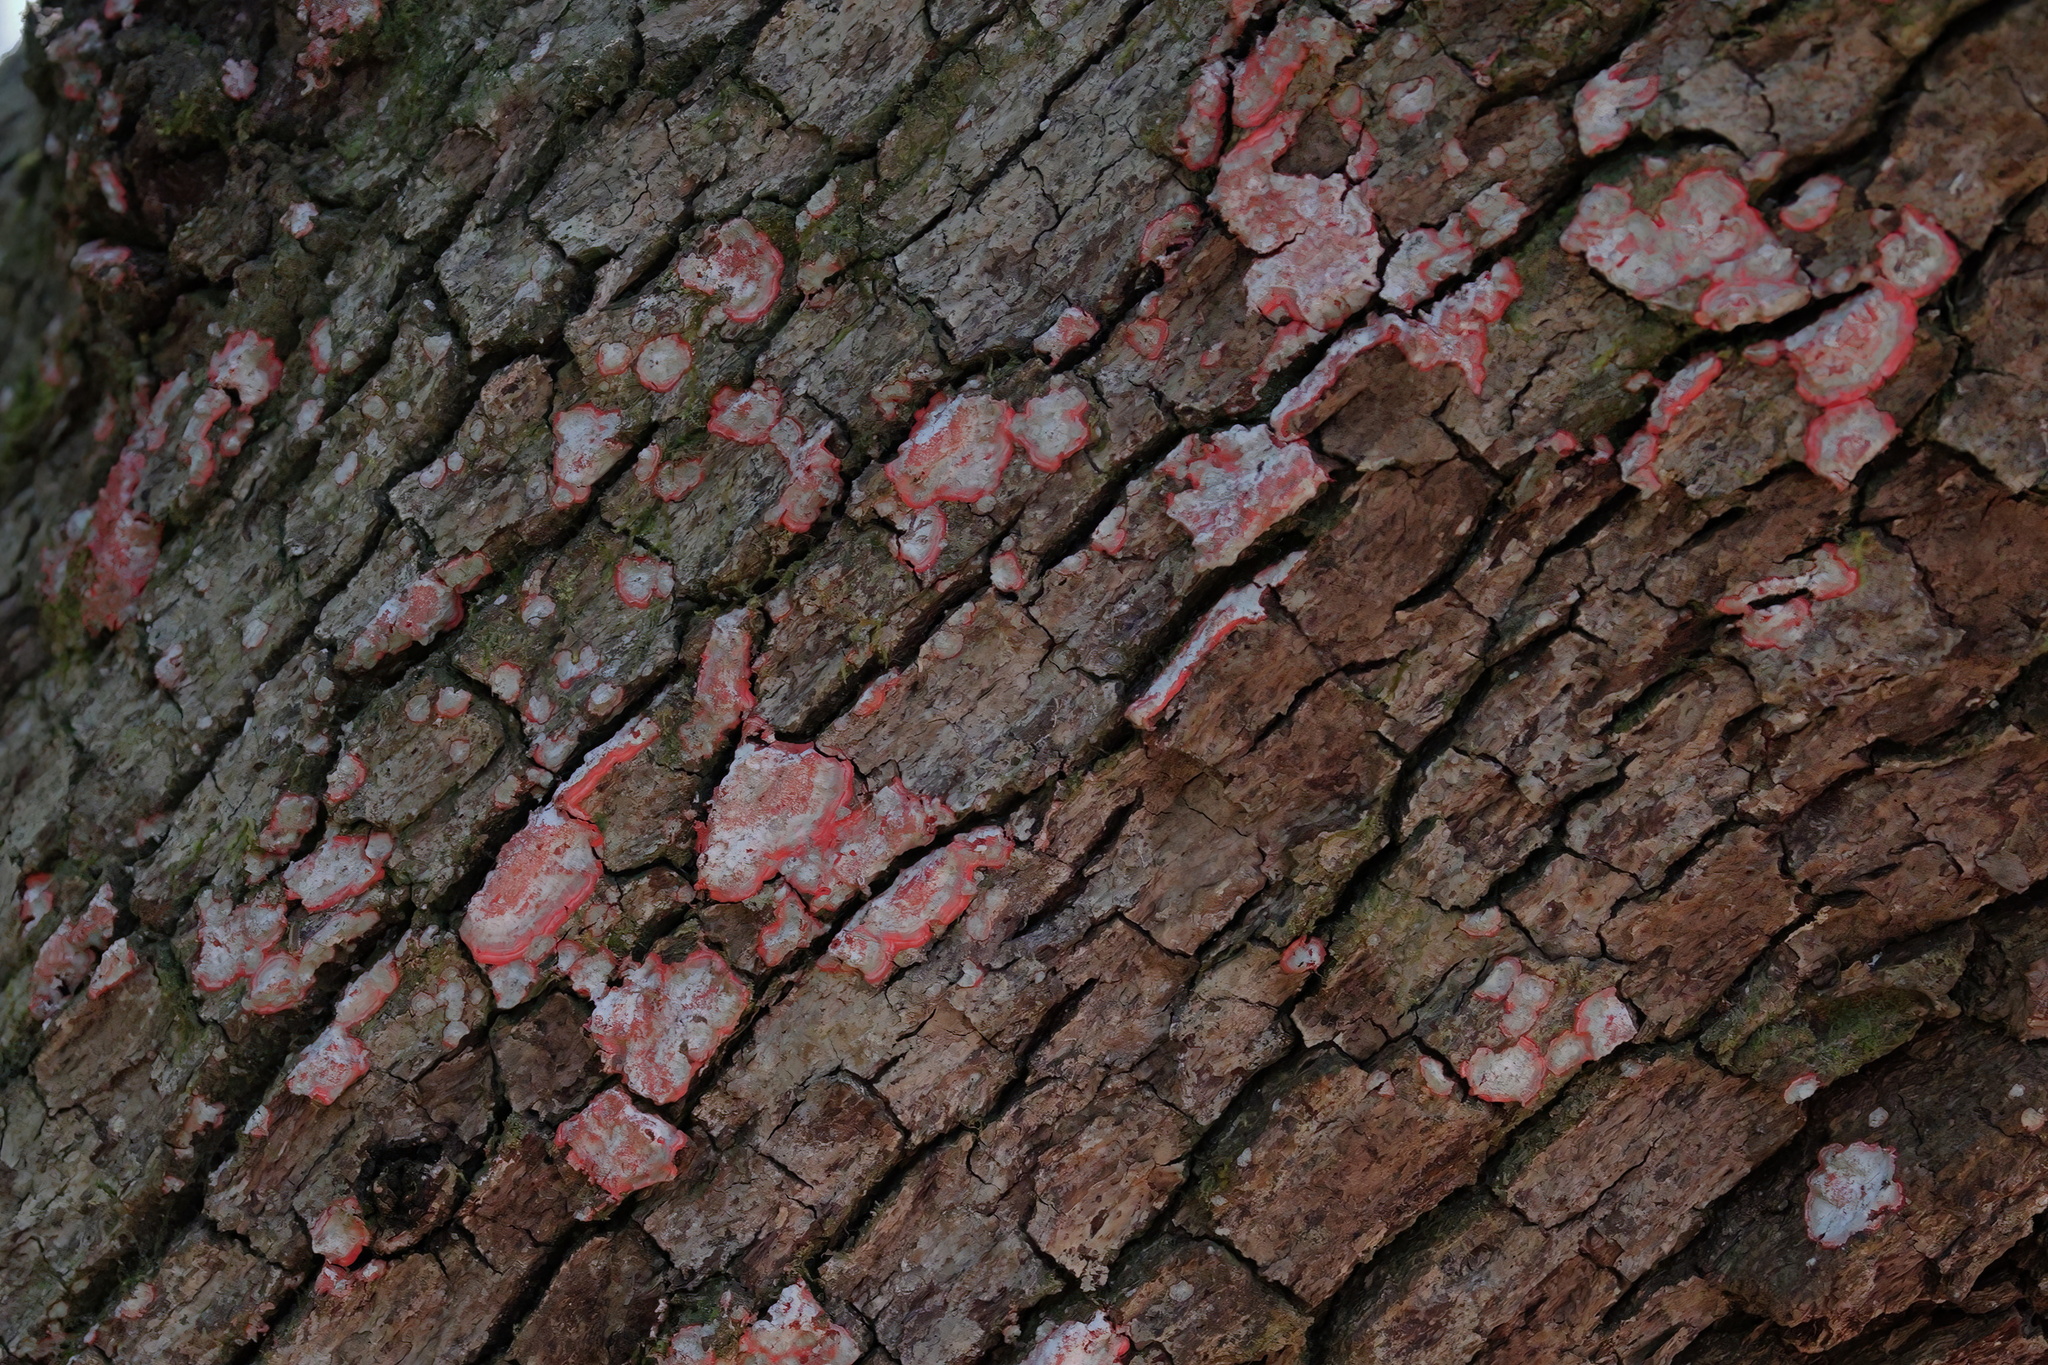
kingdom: Fungi
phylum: Ascomycota
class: Arthoniomycetes
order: Arthoniales
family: Arthoniaceae
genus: Herpothallon
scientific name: Herpothallon rubrocinctum
